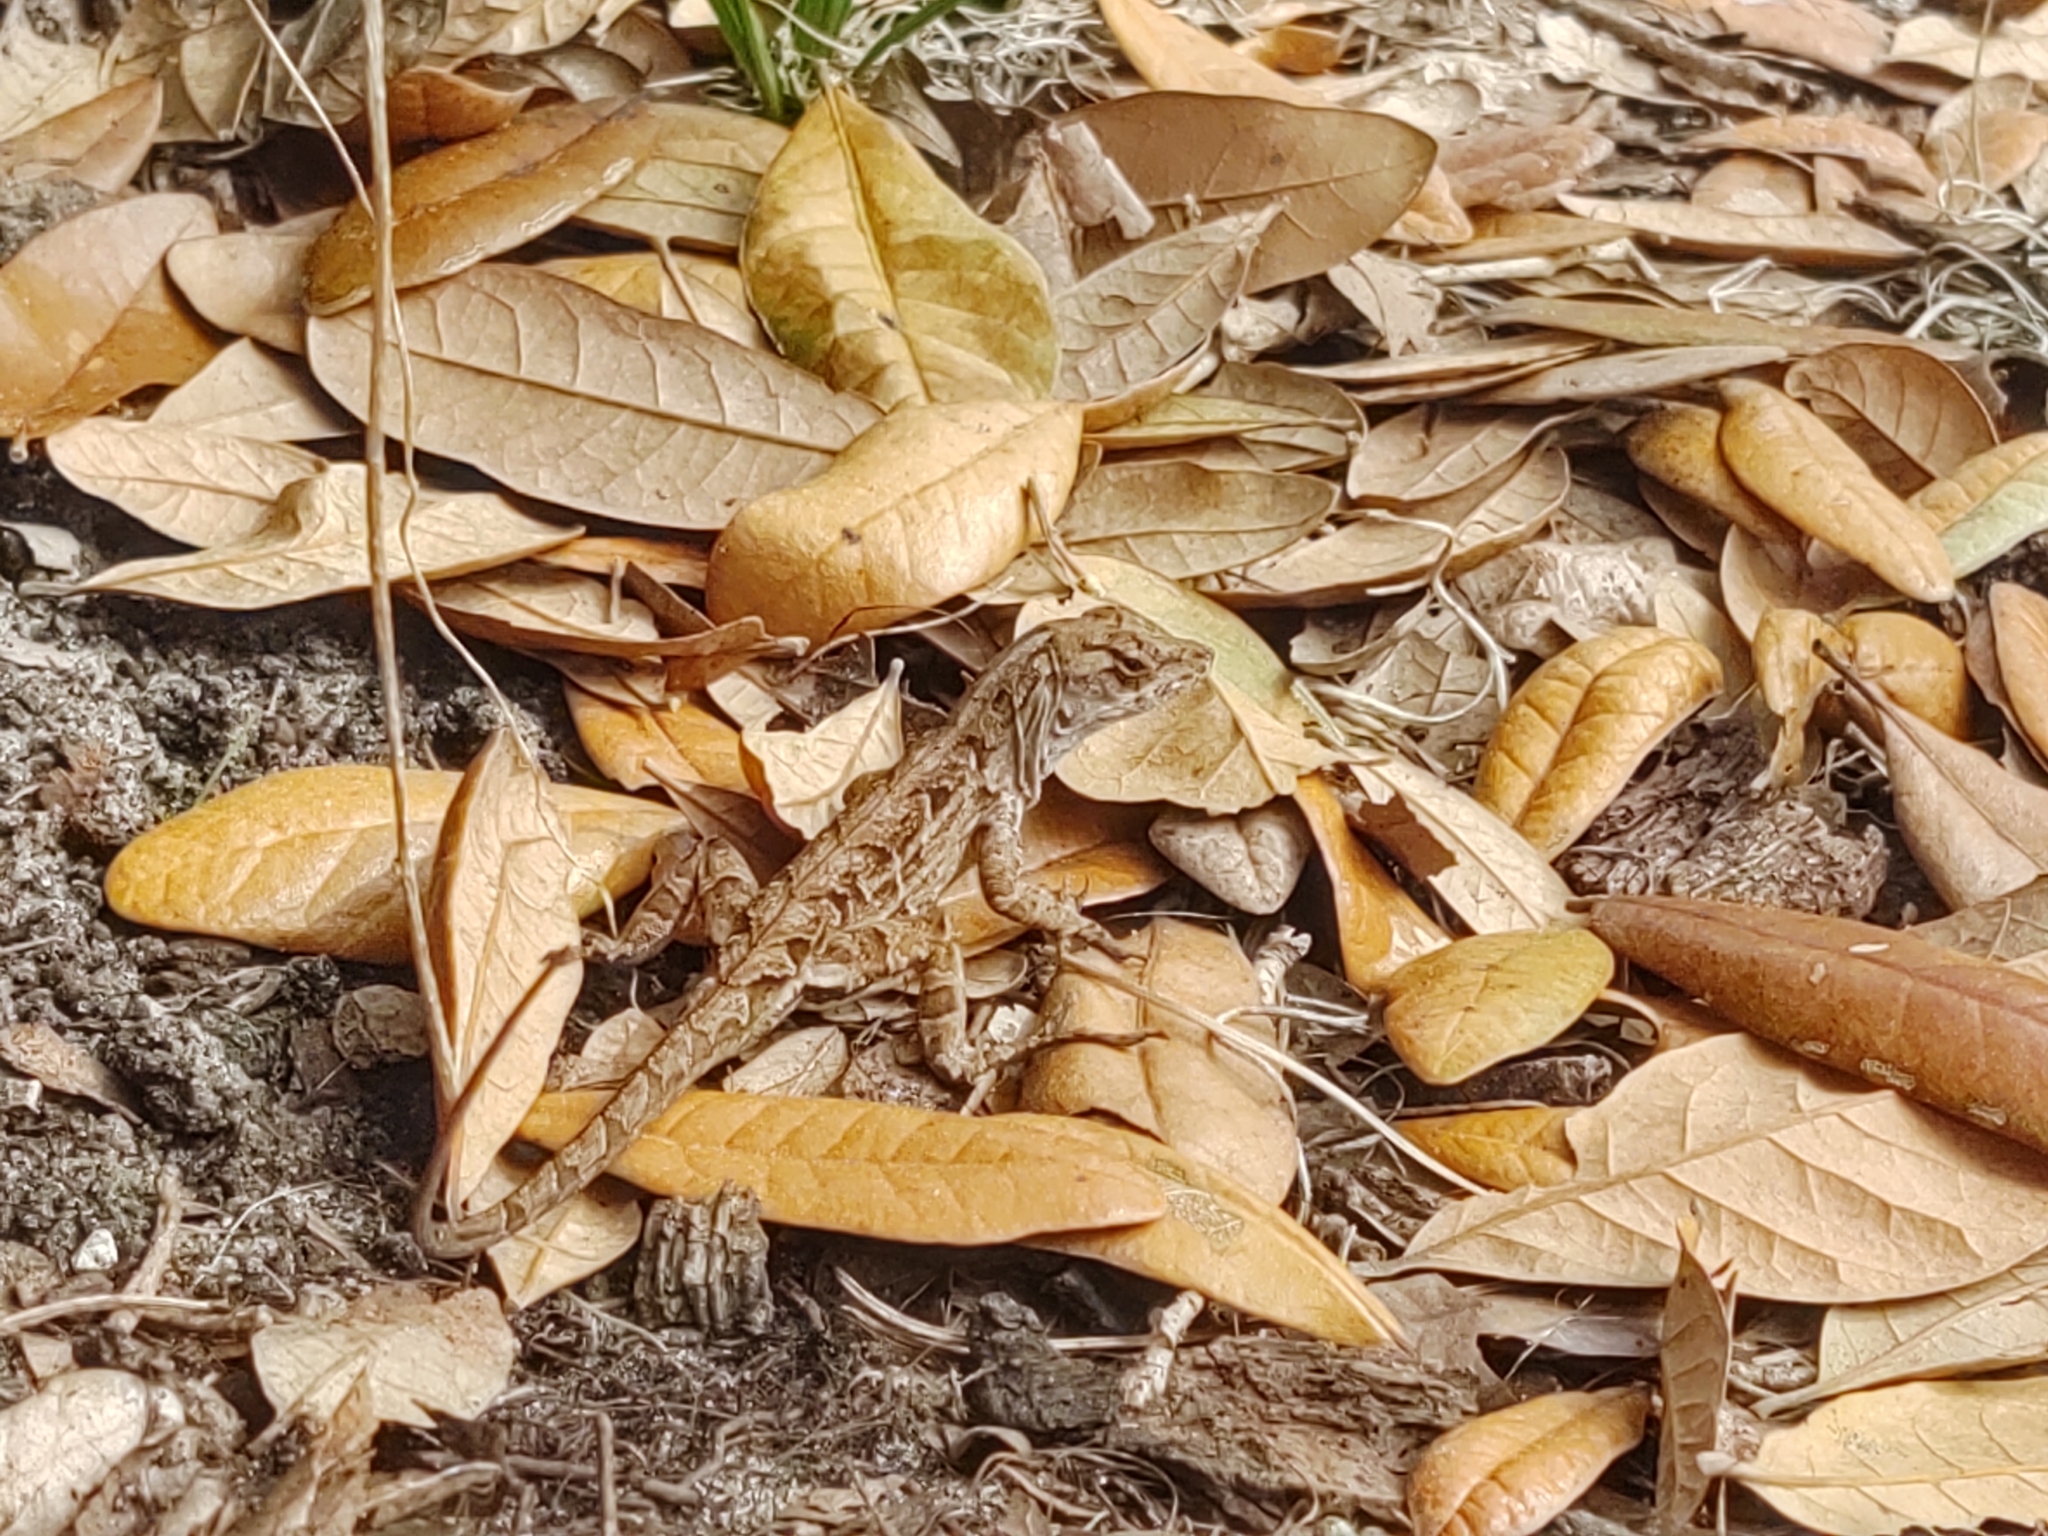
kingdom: Animalia
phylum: Chordata
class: Squamata
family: Dactyloidae
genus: Anolis
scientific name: Anolis sagrei
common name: Brown anole
